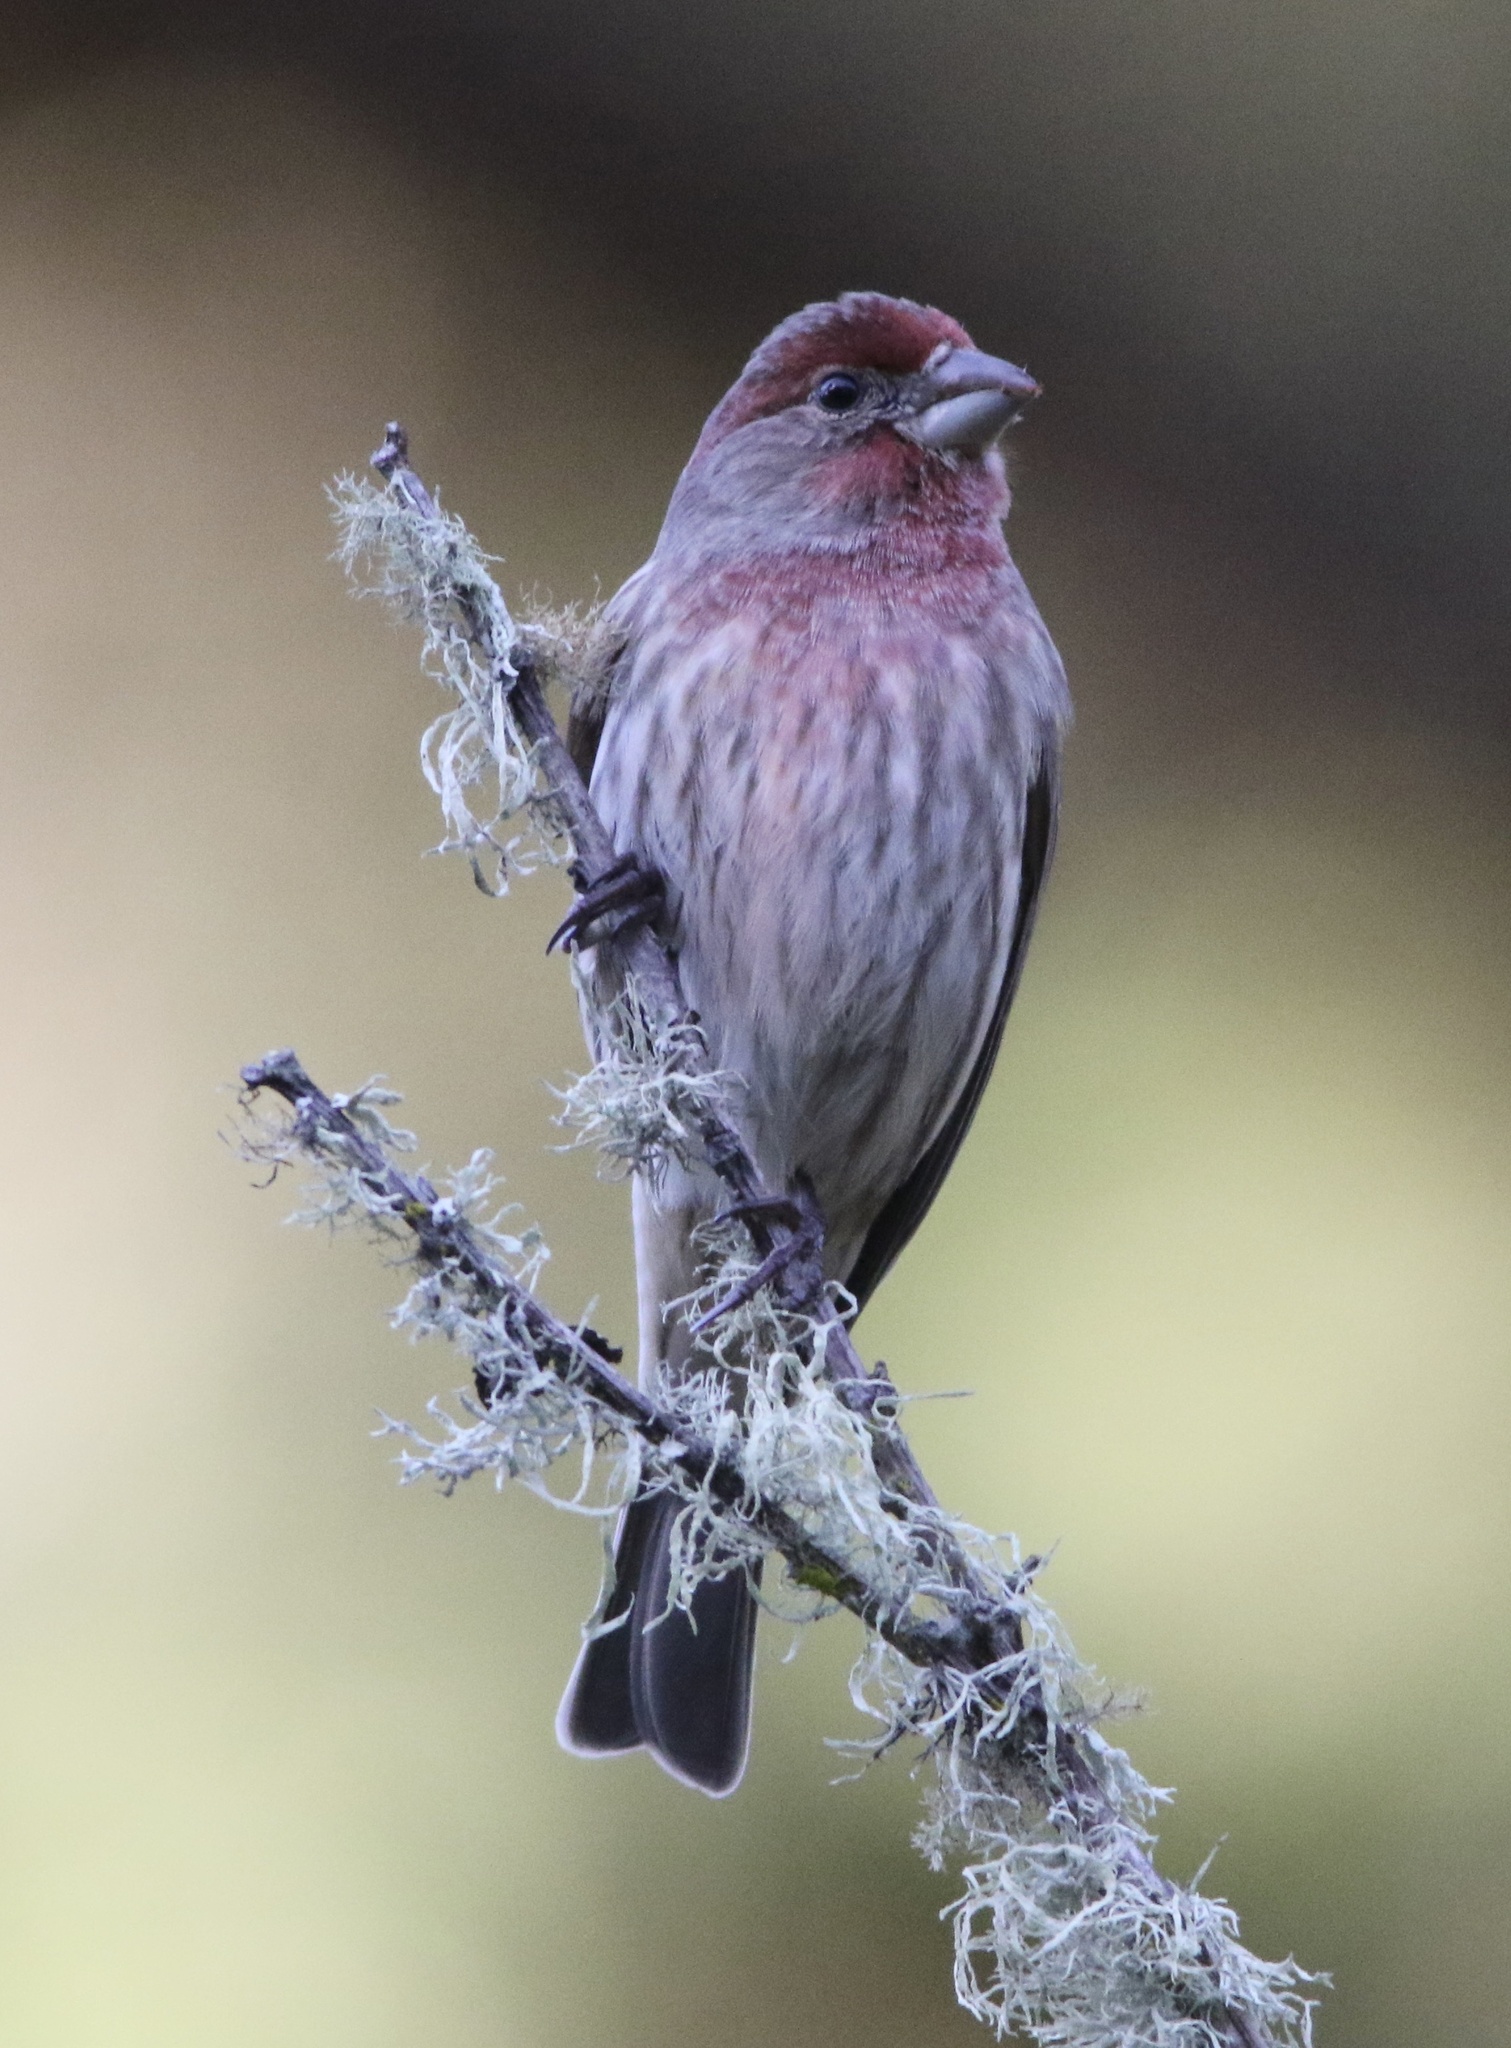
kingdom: Animalia
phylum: Chordata
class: Aves
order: Passeriformes
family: Fringillidae
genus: Haemorhous
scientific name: Haemorhous mexicanus
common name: House finch
